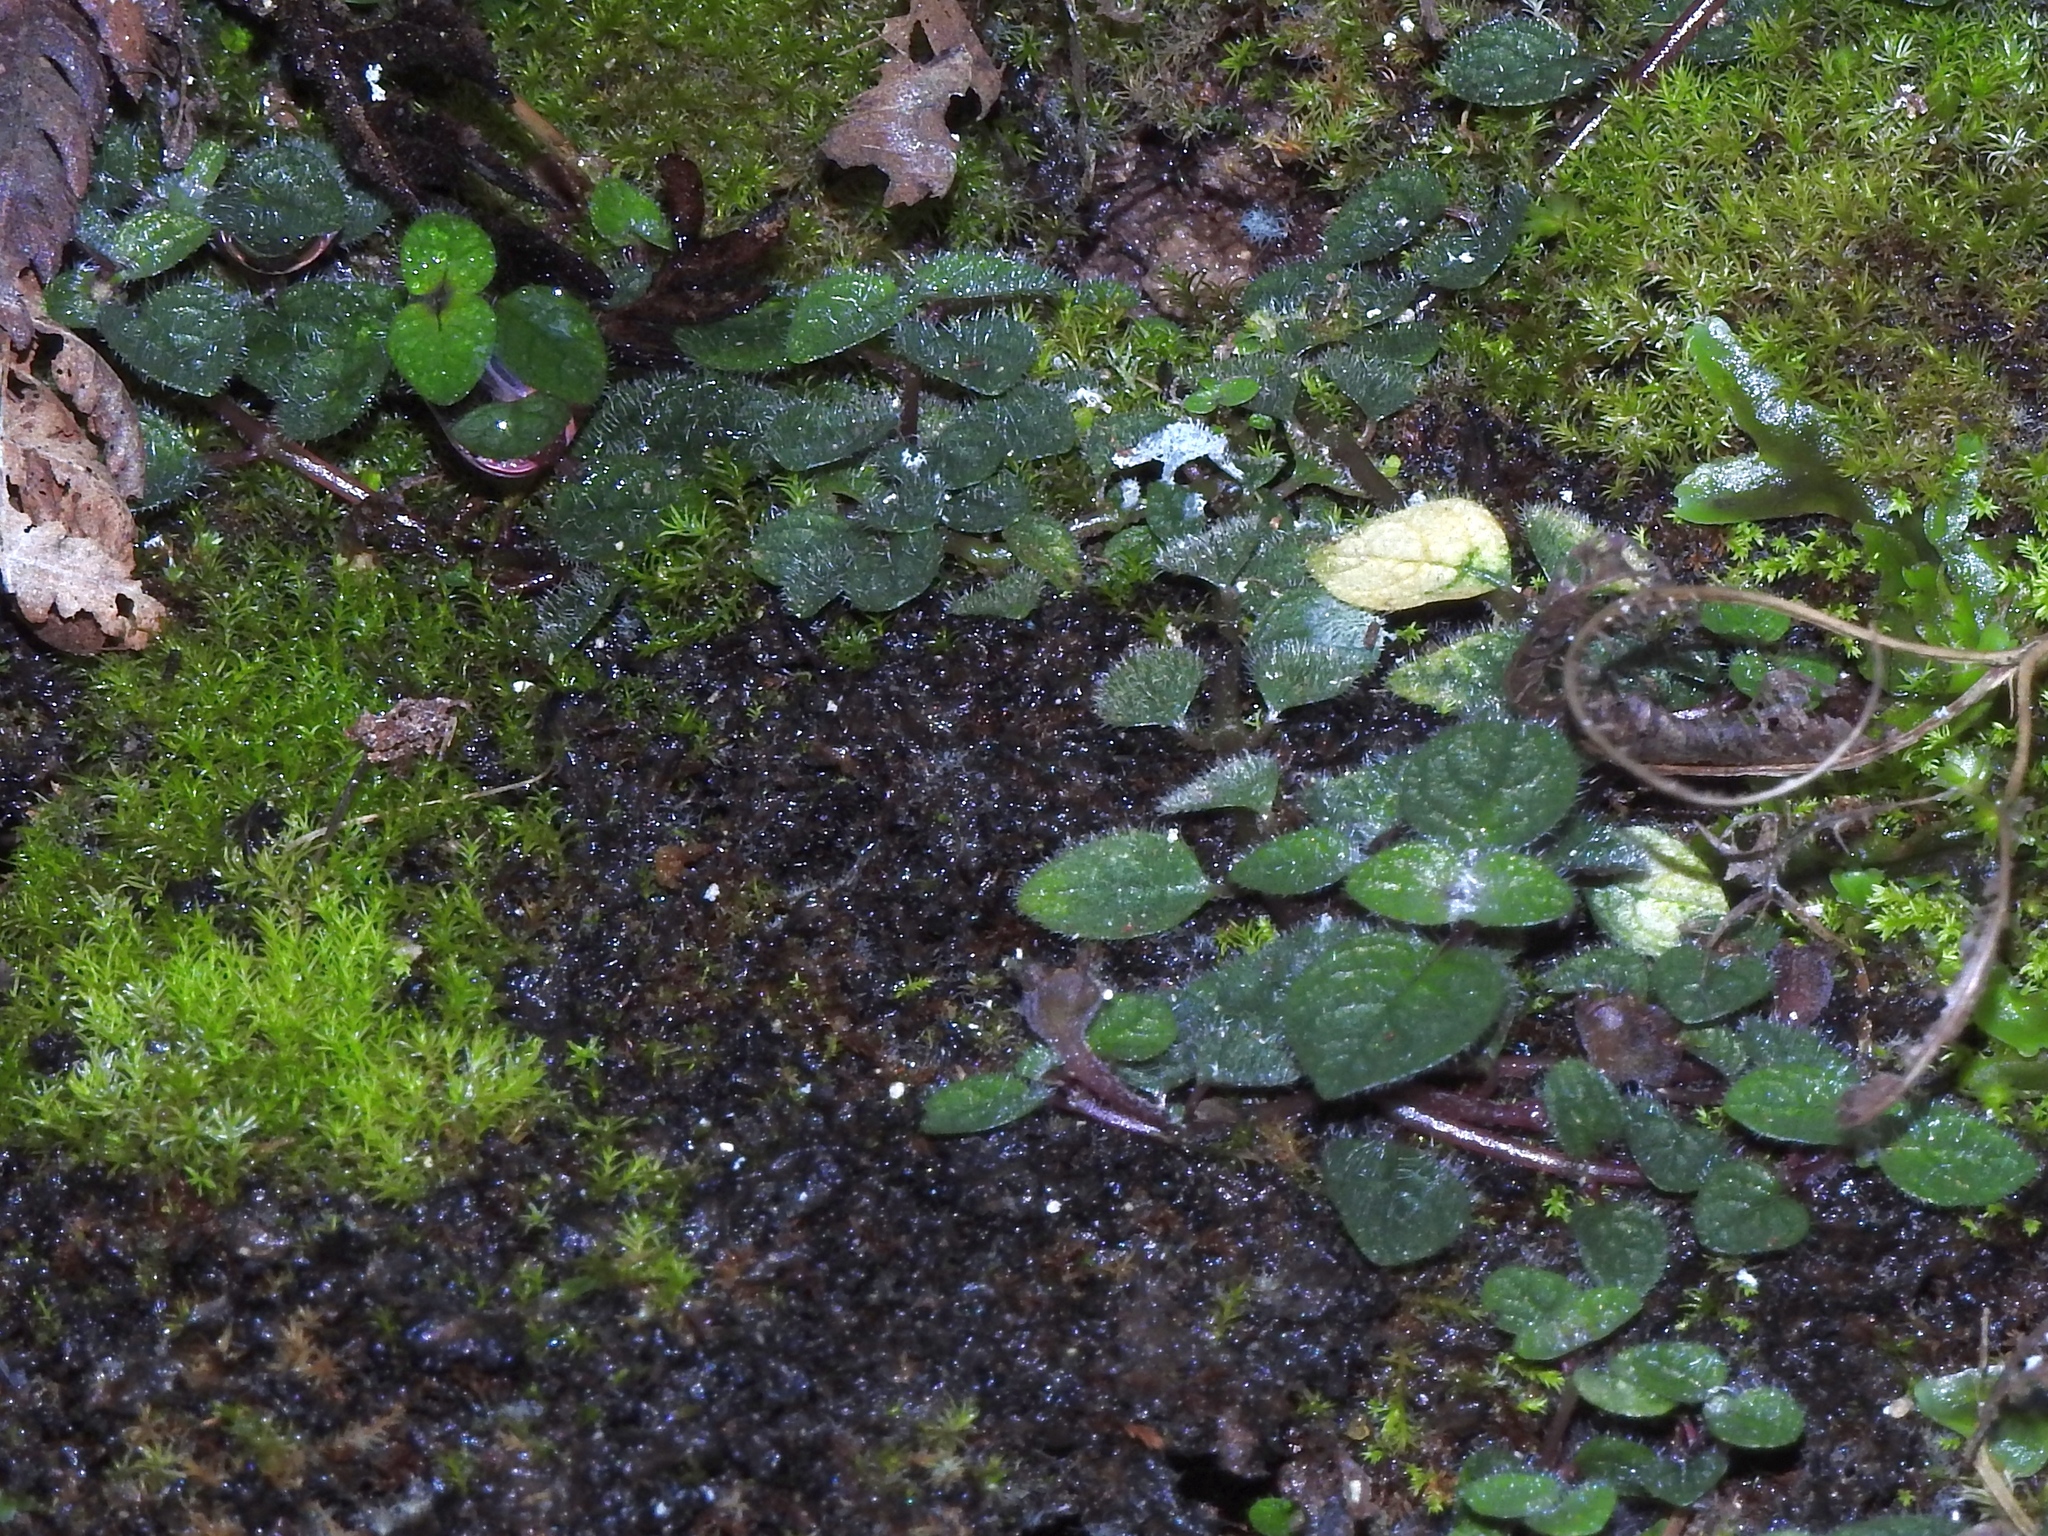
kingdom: Plantae
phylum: Tracheophyta
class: Magnoliopsida
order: Gentianales
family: Rubiaceae
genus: Ophiorrhiza
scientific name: Ophiorrhiza mitchelloides
